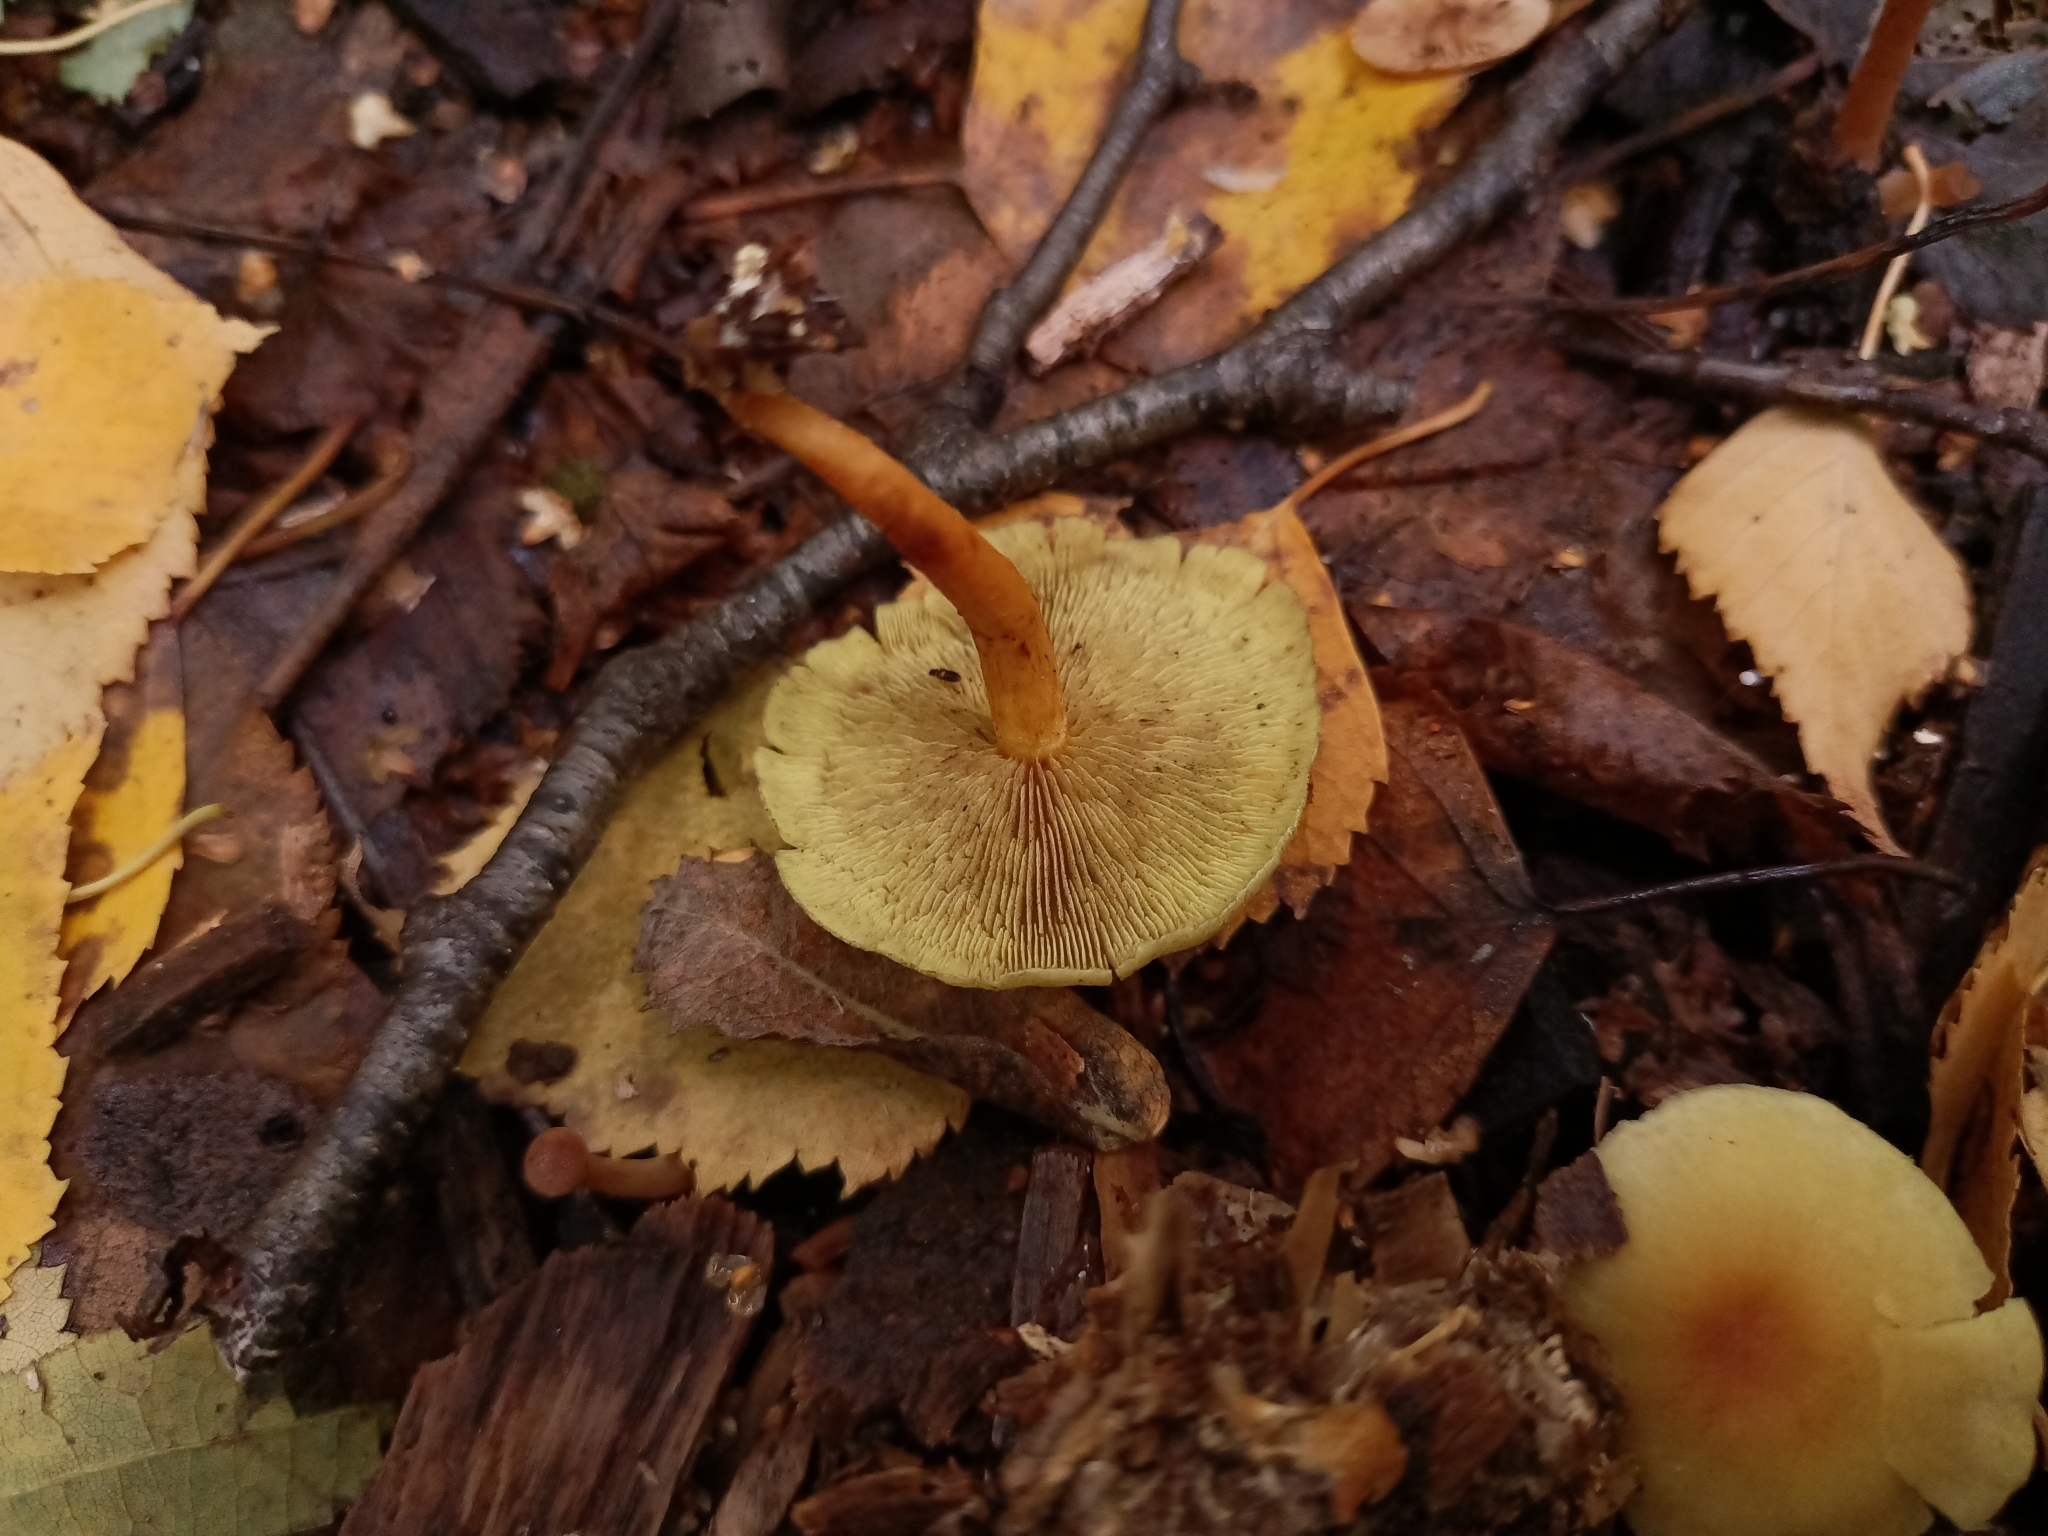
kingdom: Fungi
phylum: Basidiomycota
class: Agaricomycetes
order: Agaricales
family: Strophariaceae
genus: Hypholoma
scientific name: Hypholoma fasciculare
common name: Sulphur tuft
